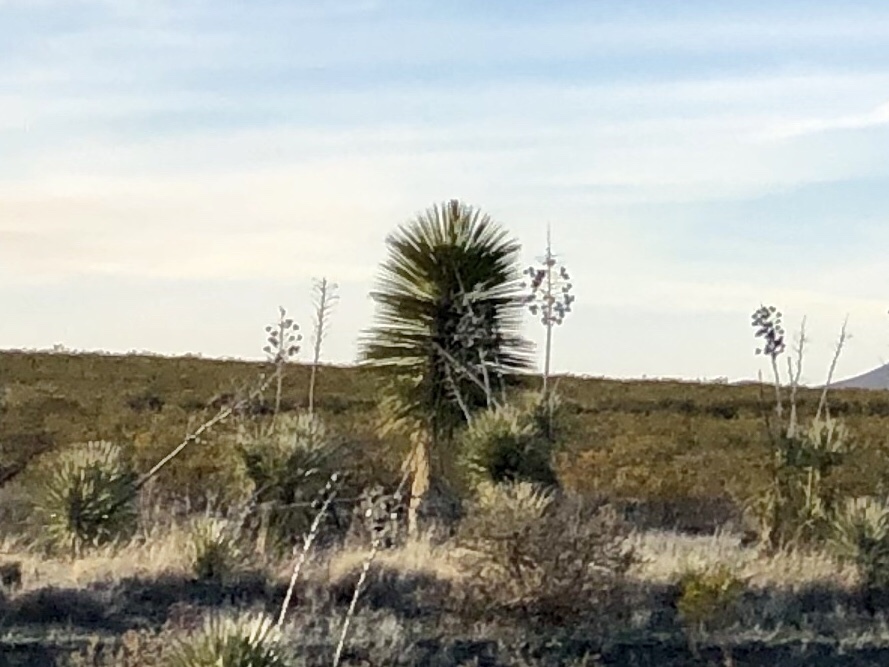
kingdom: Plantae
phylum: Tracheophyta
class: Liliopsida
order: Asparagales
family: Asparagaceae
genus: Yucca
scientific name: Yucca elata
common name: Palmella
